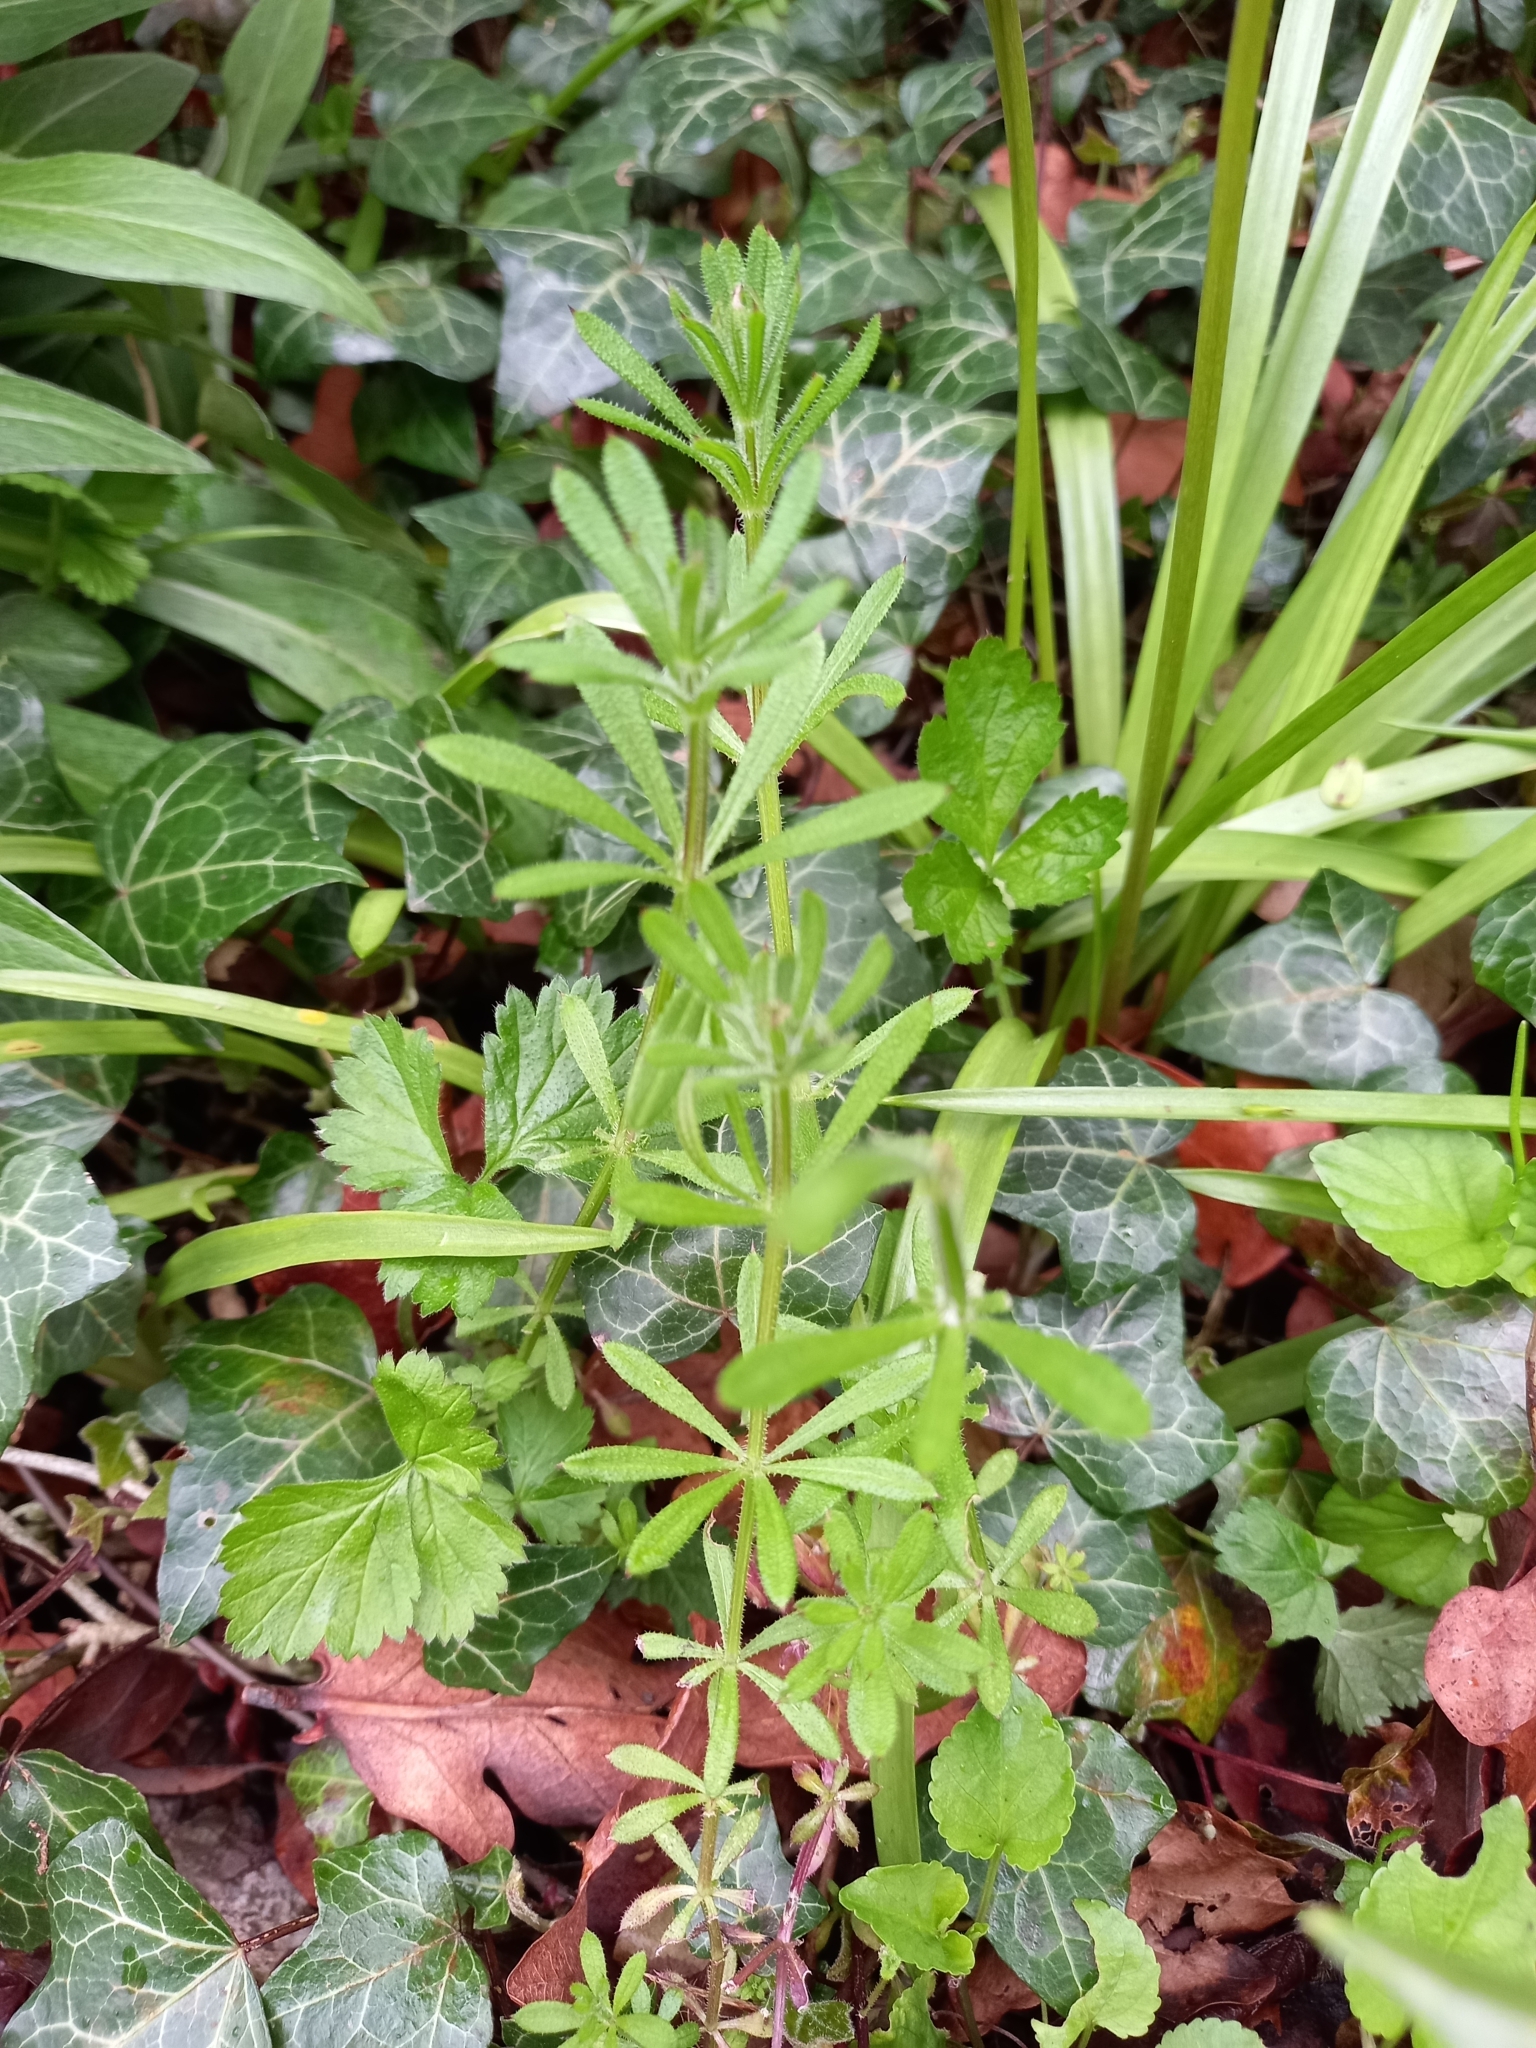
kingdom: Plantae
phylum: Tracheophyta
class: Magnoliopsida
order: Gentianales
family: Rubiaceae
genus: Galium
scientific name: Galium aparine
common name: Cleavers
